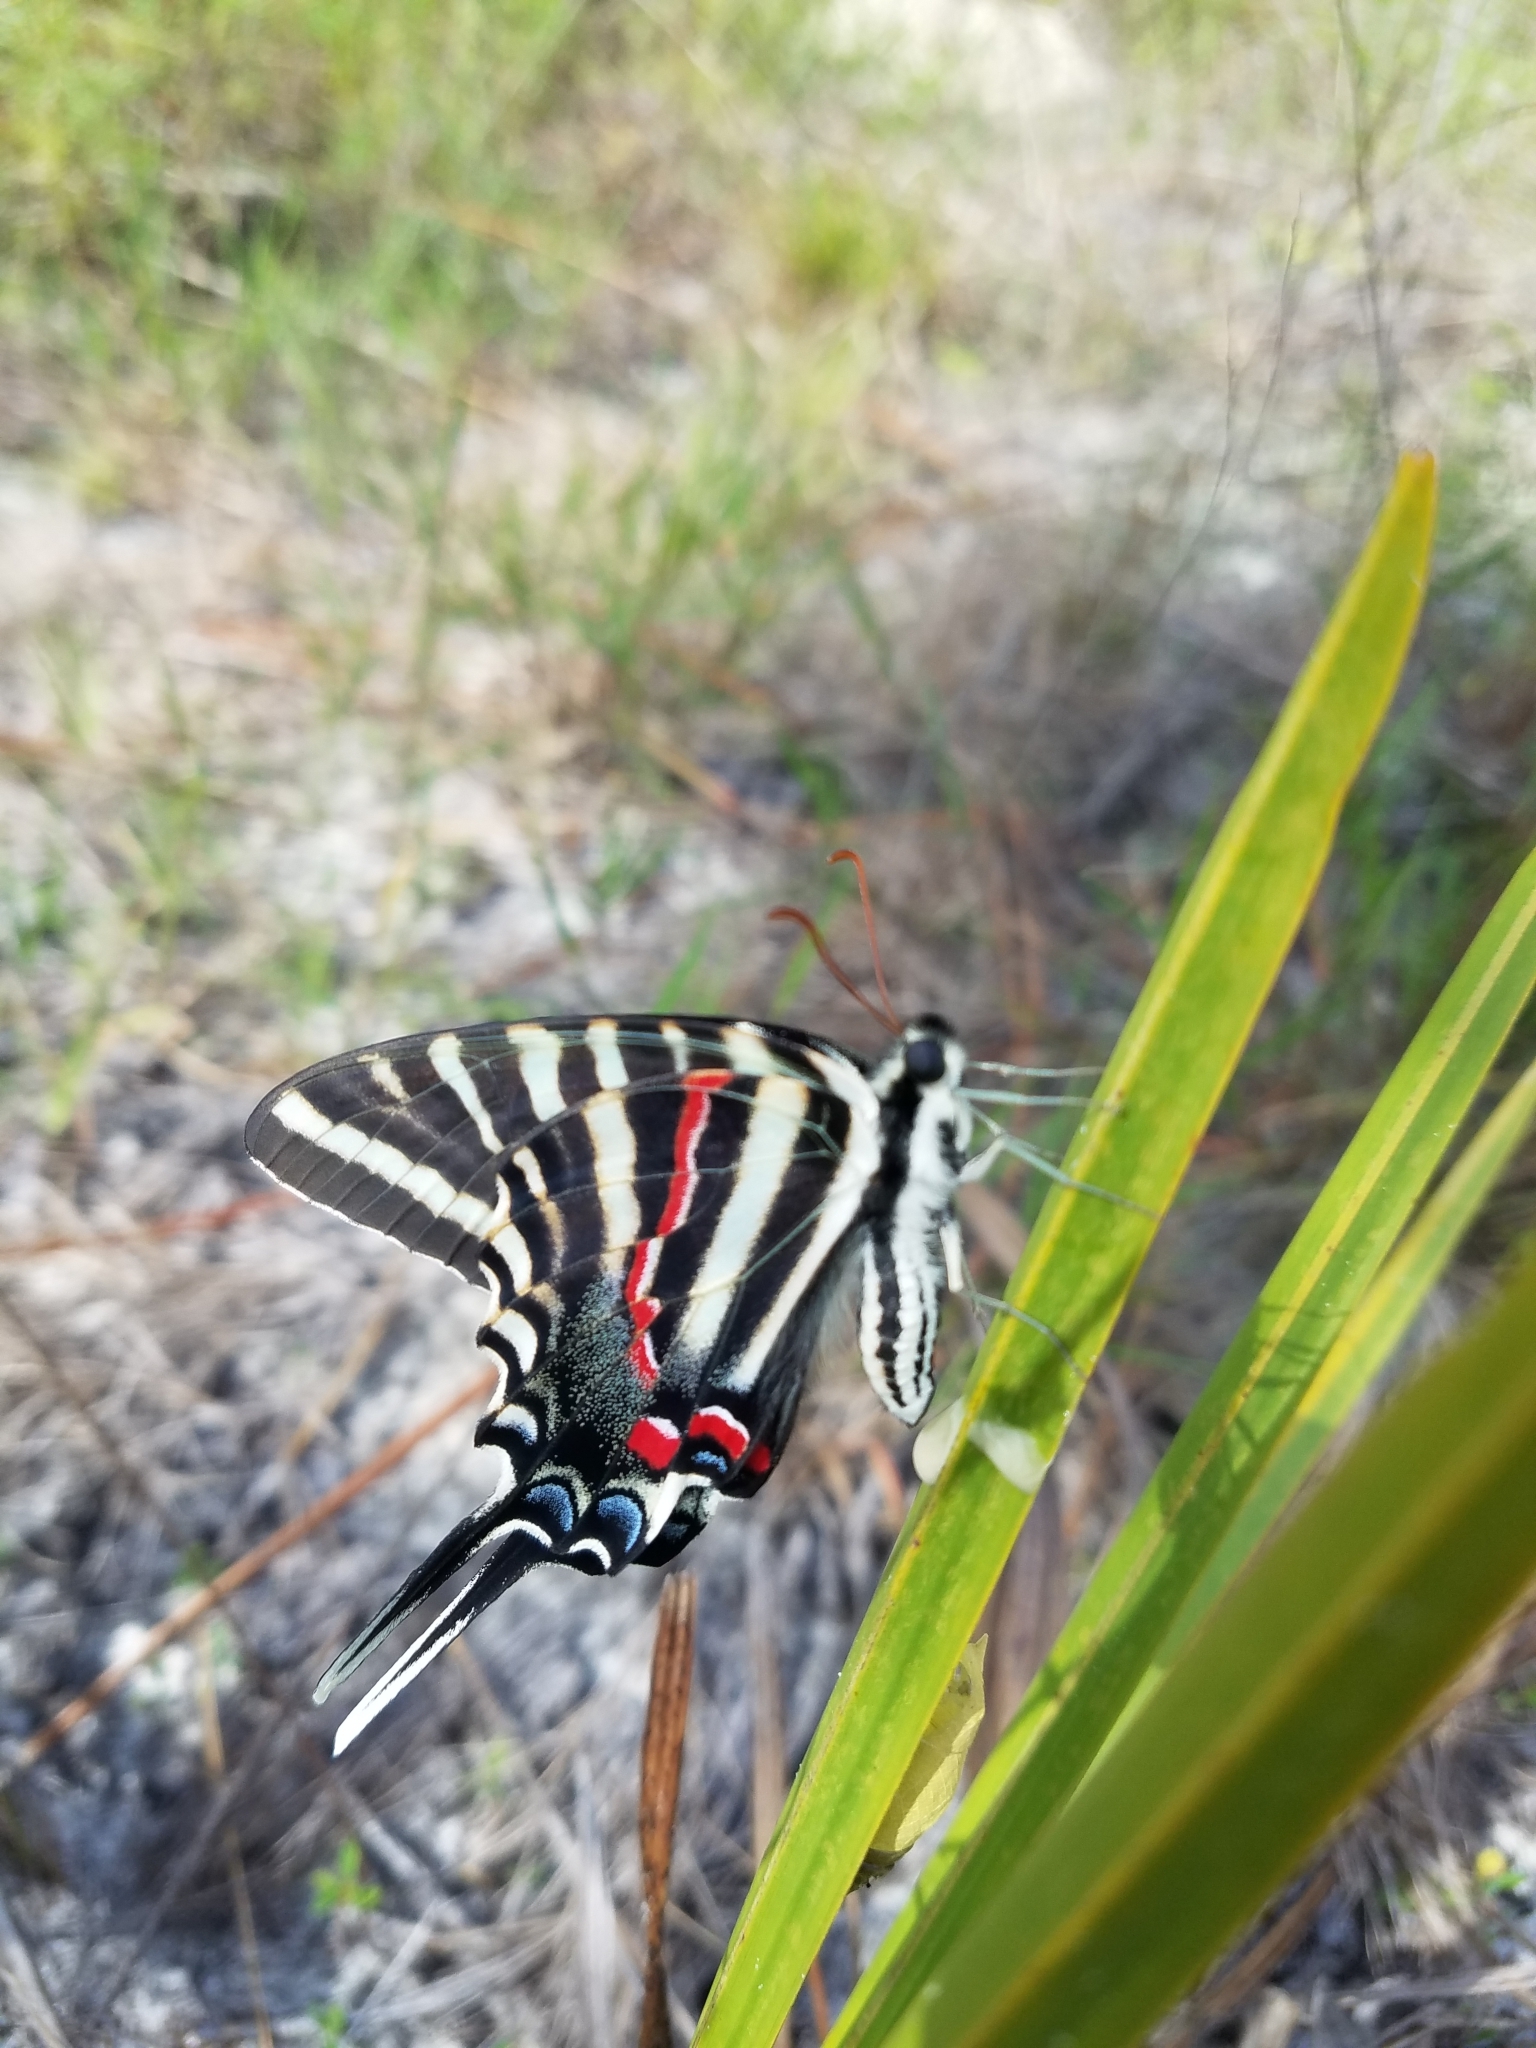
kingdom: Animalia
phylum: Arthropoda
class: Insecta
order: Lepidoptera
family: Papilionidae
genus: Protographium
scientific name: Protographium marcellus
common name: Zebra swallowtail
